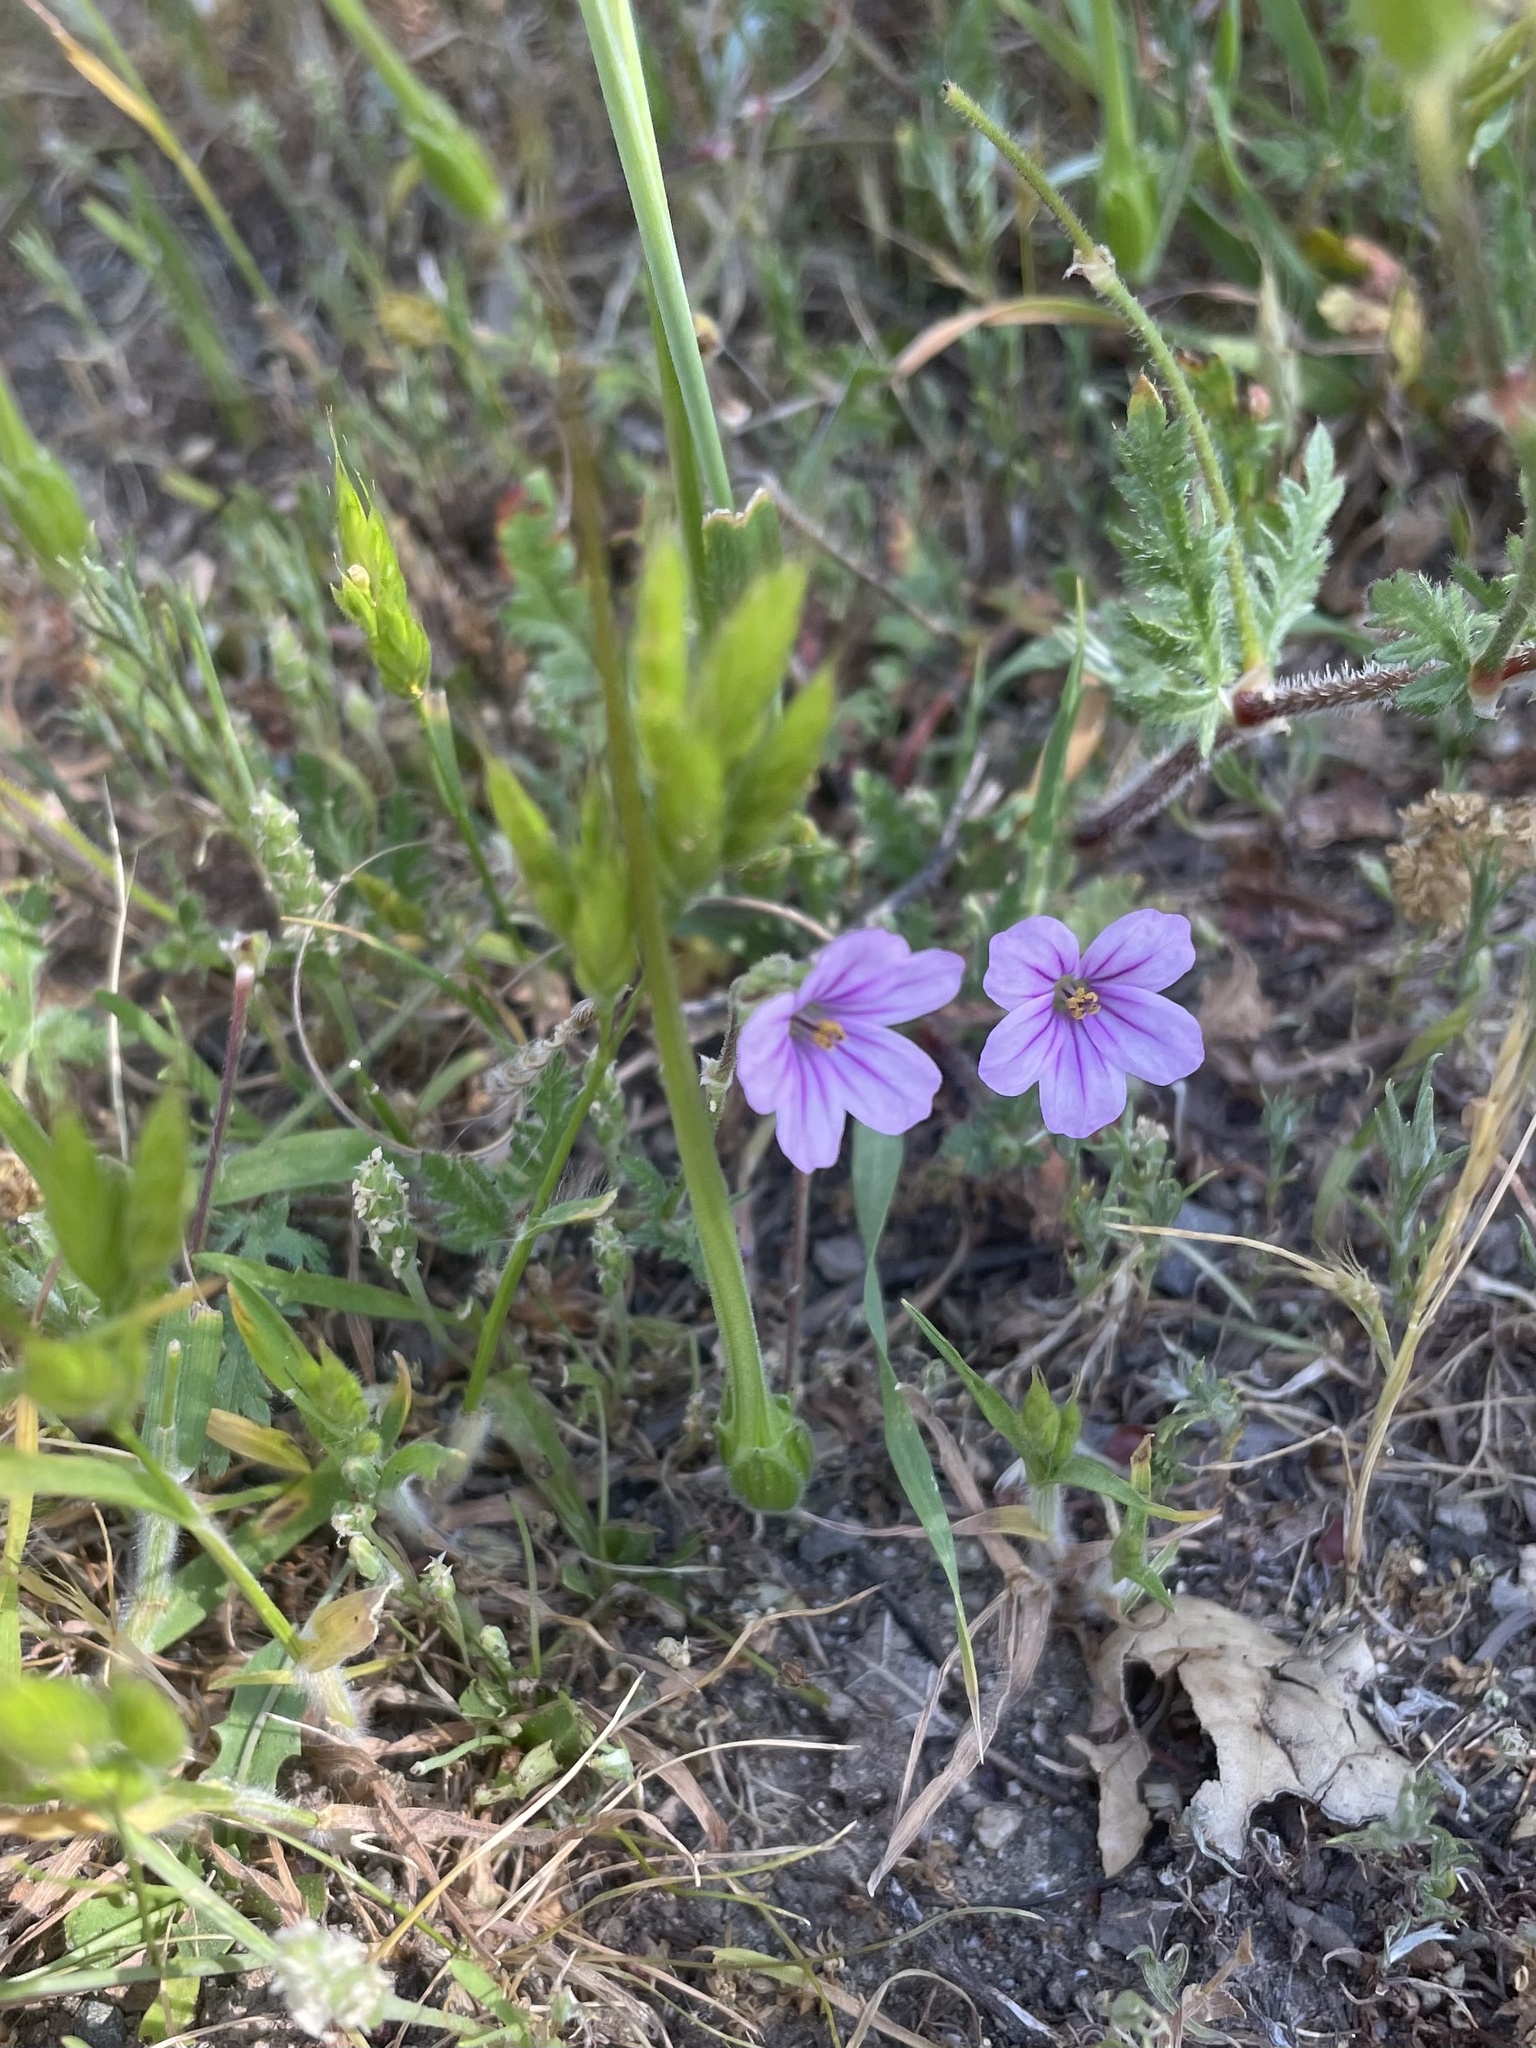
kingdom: Plantae
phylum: Tracheophyta
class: Magnoliopsida
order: Geraniales
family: Geraniaceae
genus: Erodium
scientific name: Erodium botrys
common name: Mediterranean stork's-bill
